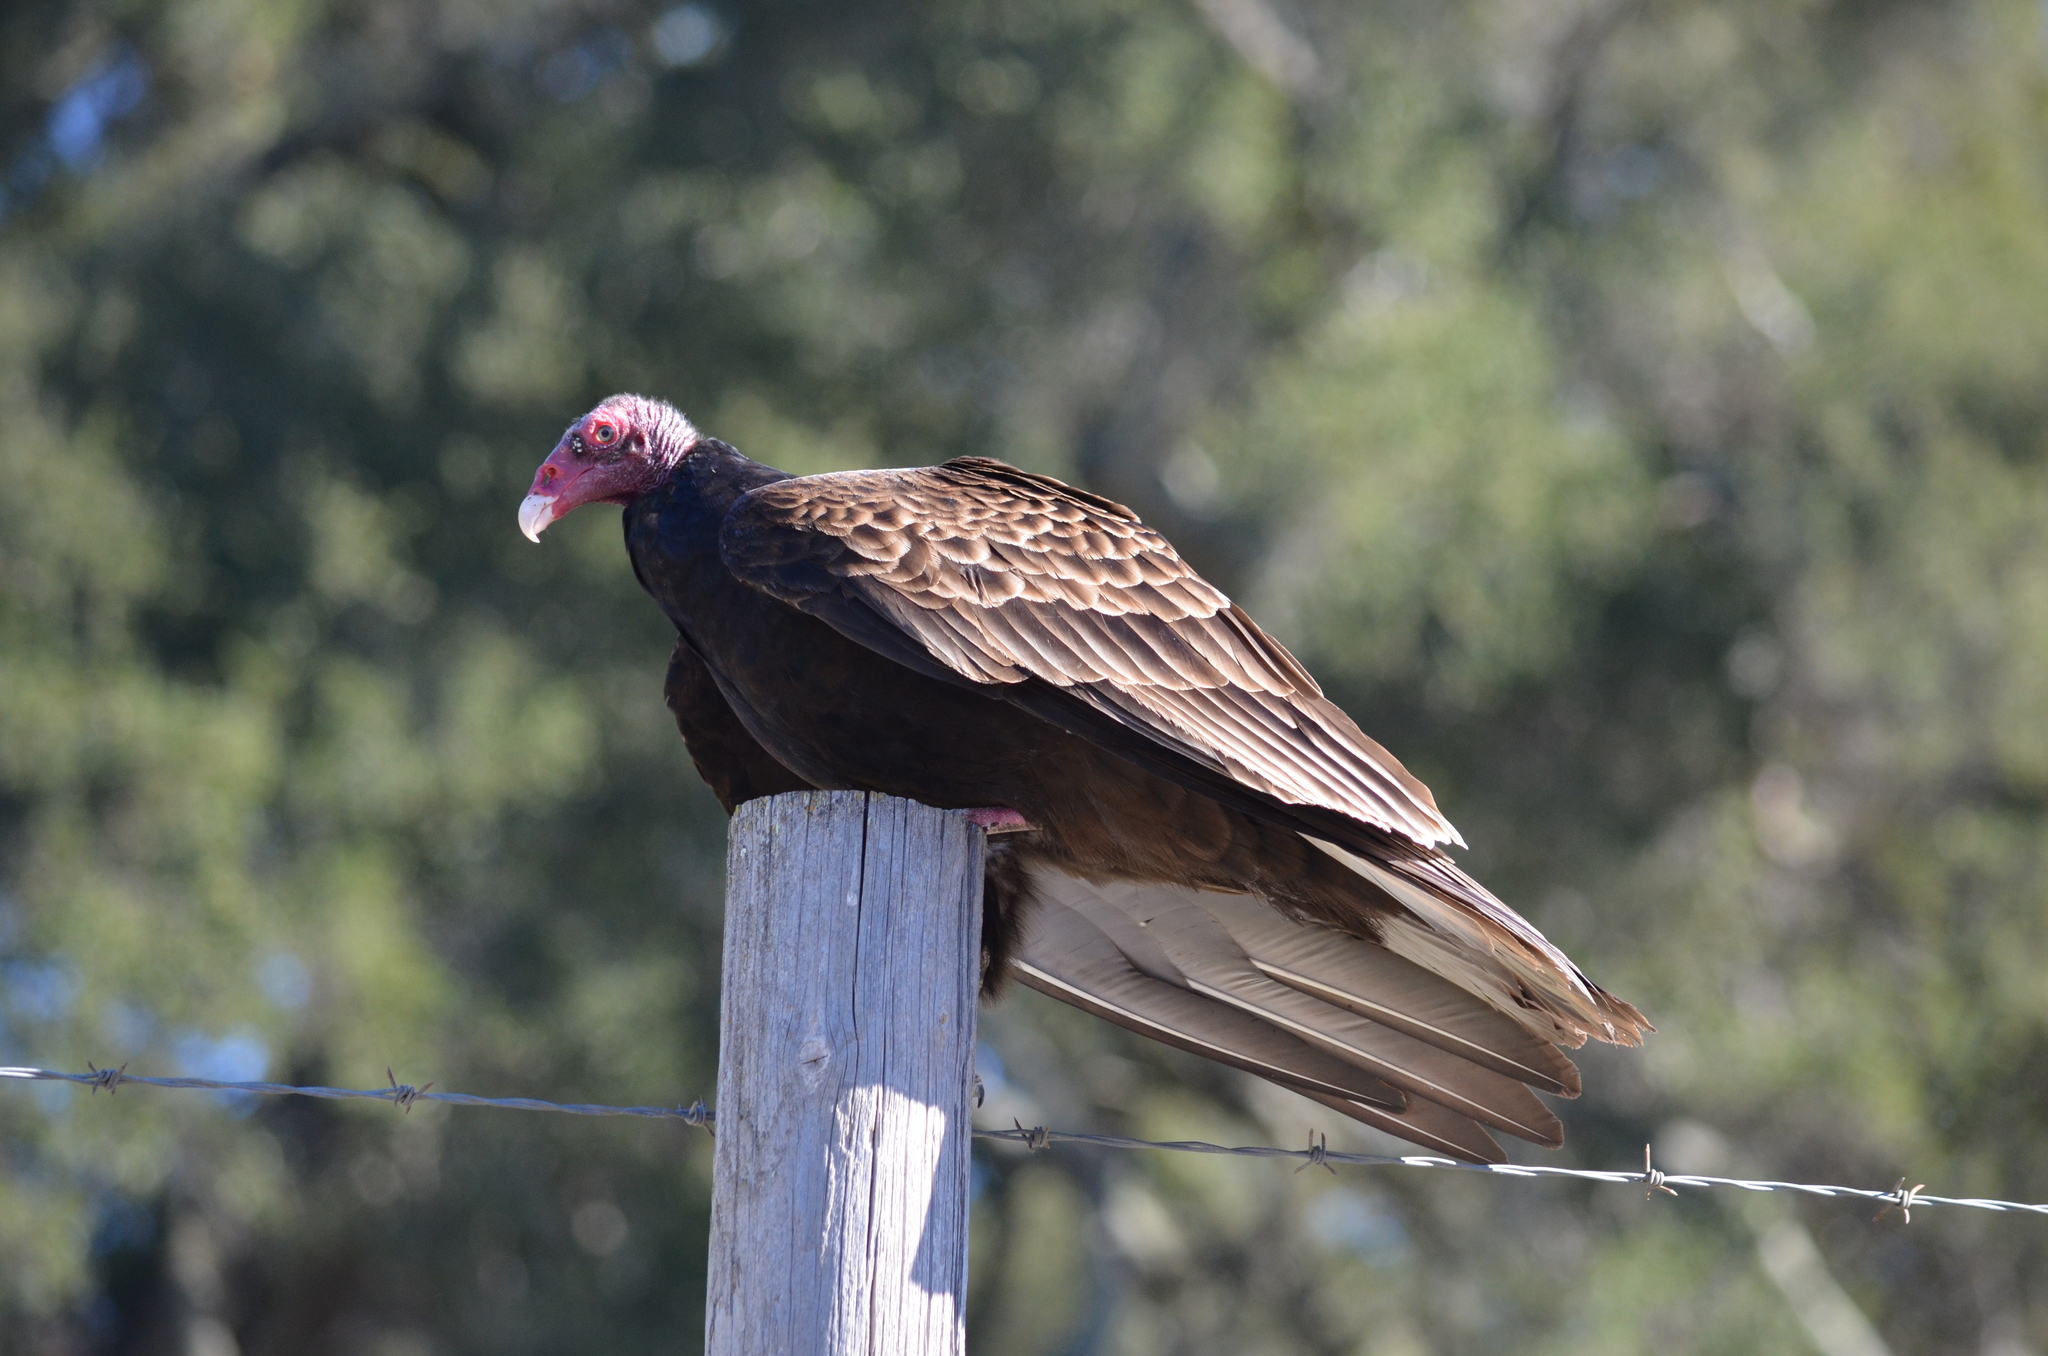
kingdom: Animalia
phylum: Chordata
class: Aves
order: Accipitriformes
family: Cathartidae
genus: Cathartes
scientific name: Cathartes aura
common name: Turkey vulture
